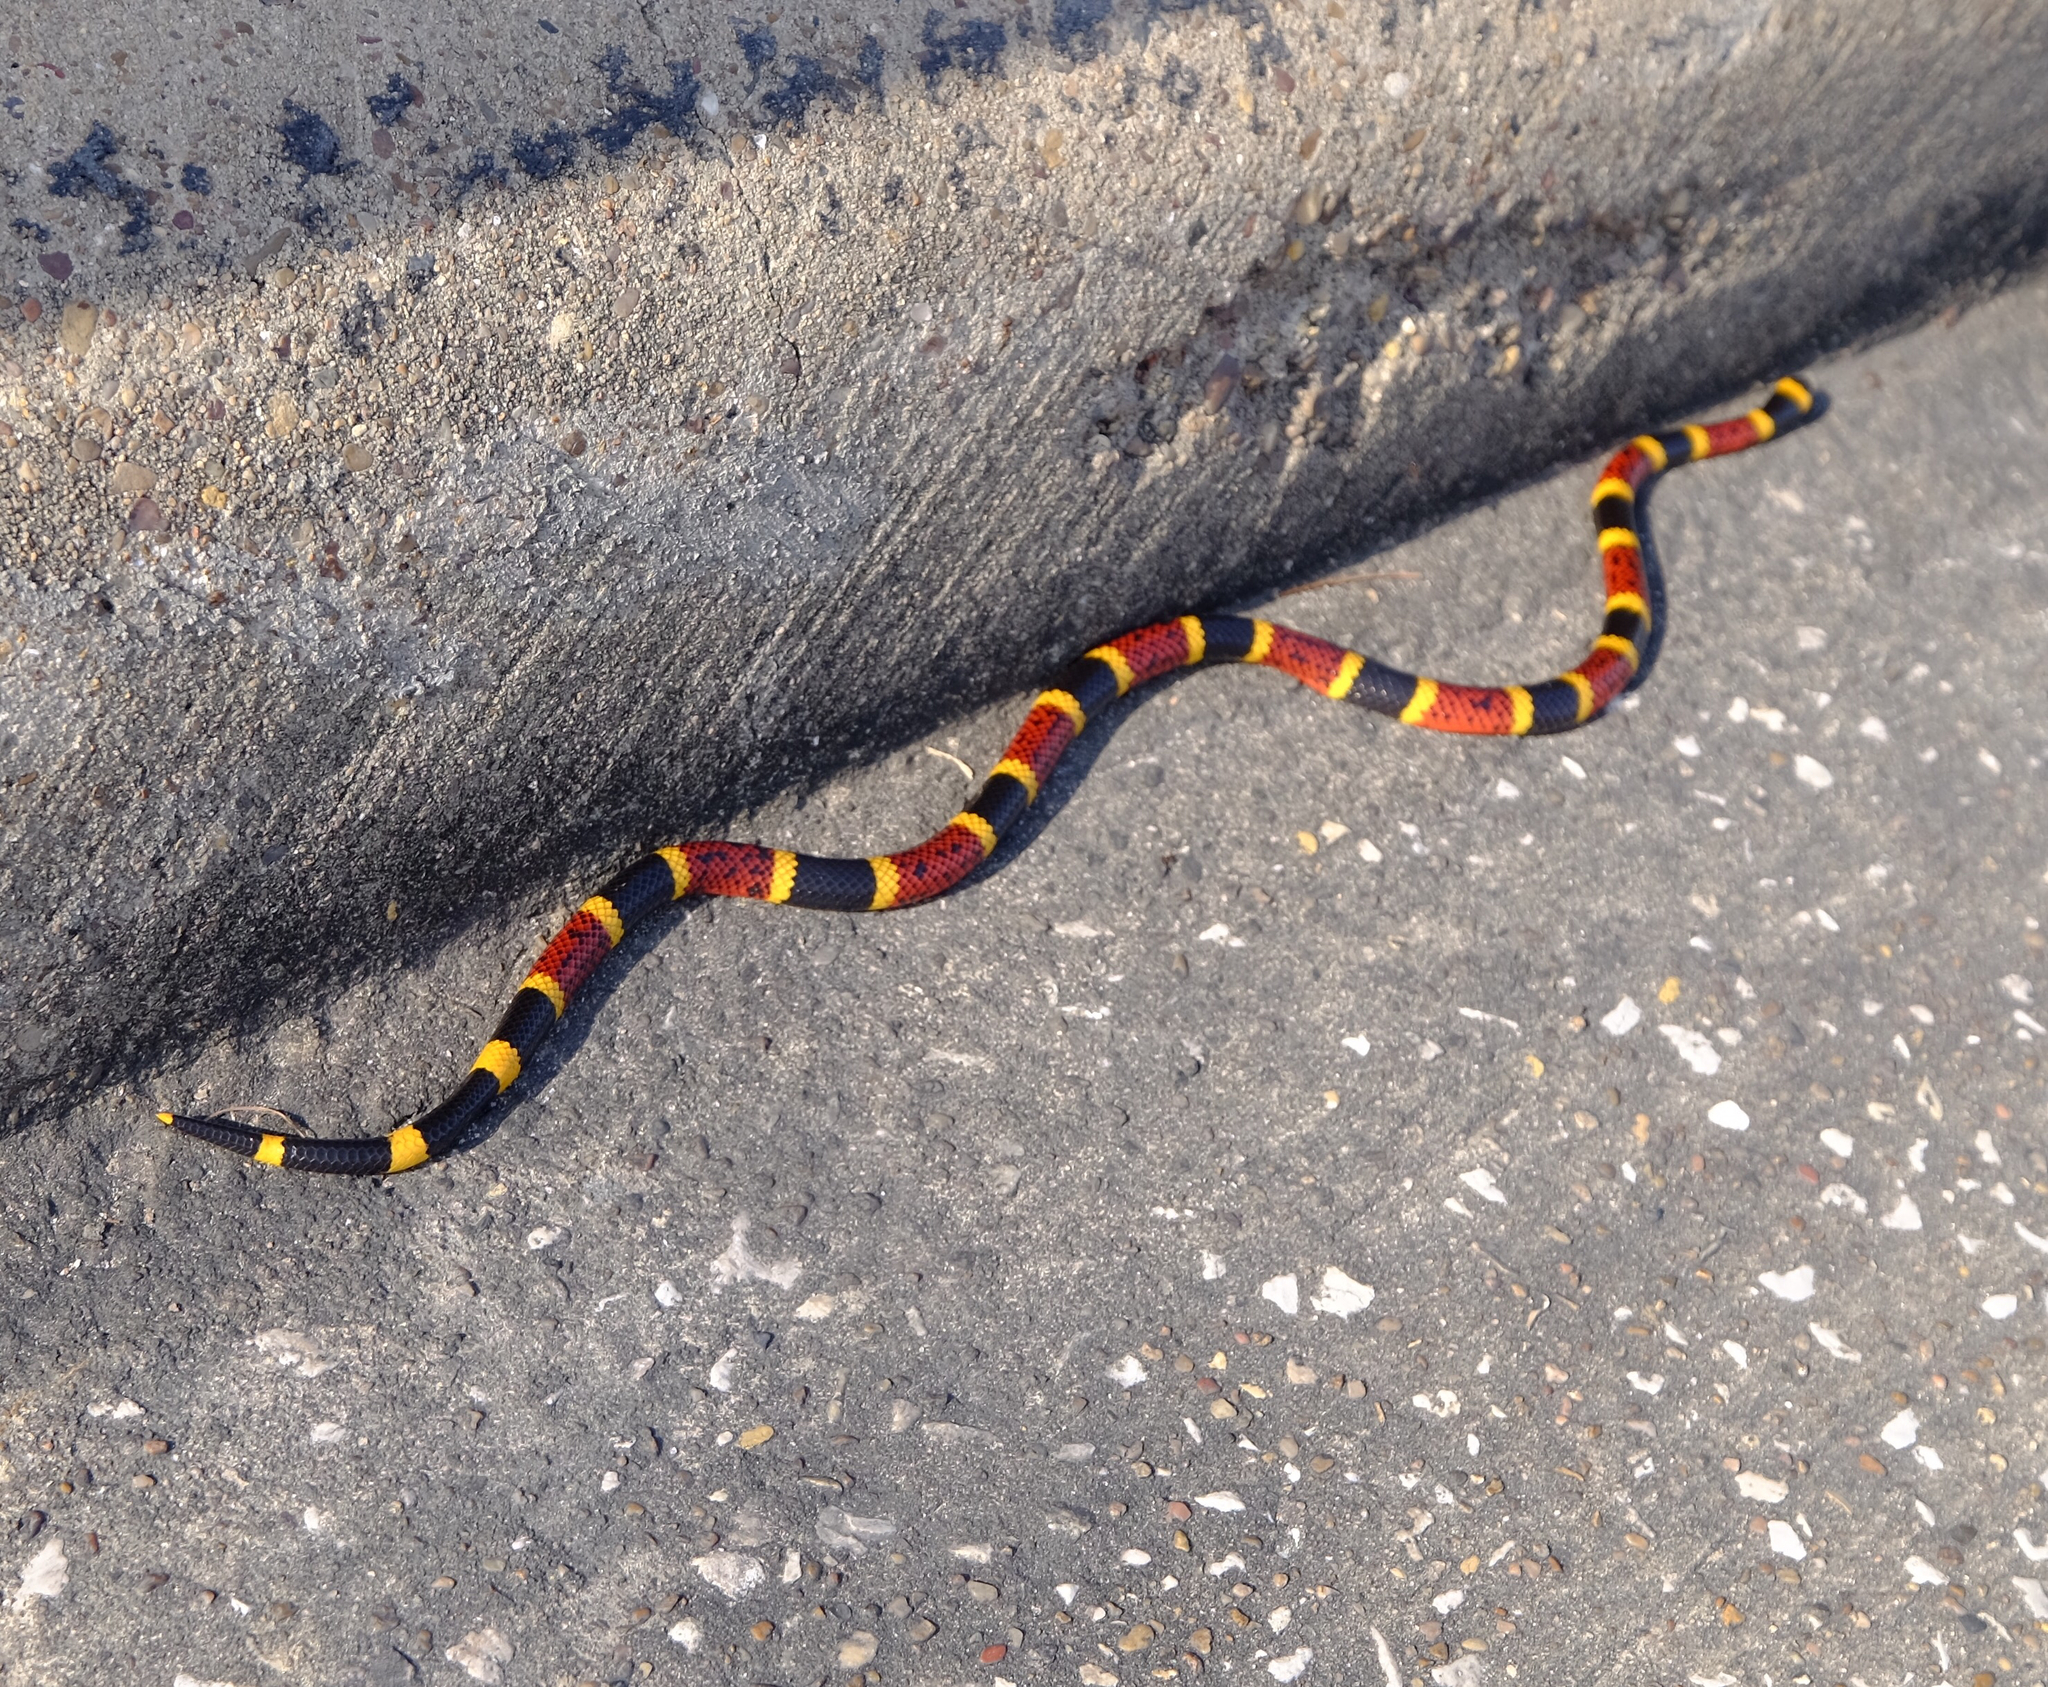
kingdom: Animalia
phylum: Chordata
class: Squamata
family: Elapidae
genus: Micrurus
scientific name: Micrurus tener
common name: Texas coral snake
